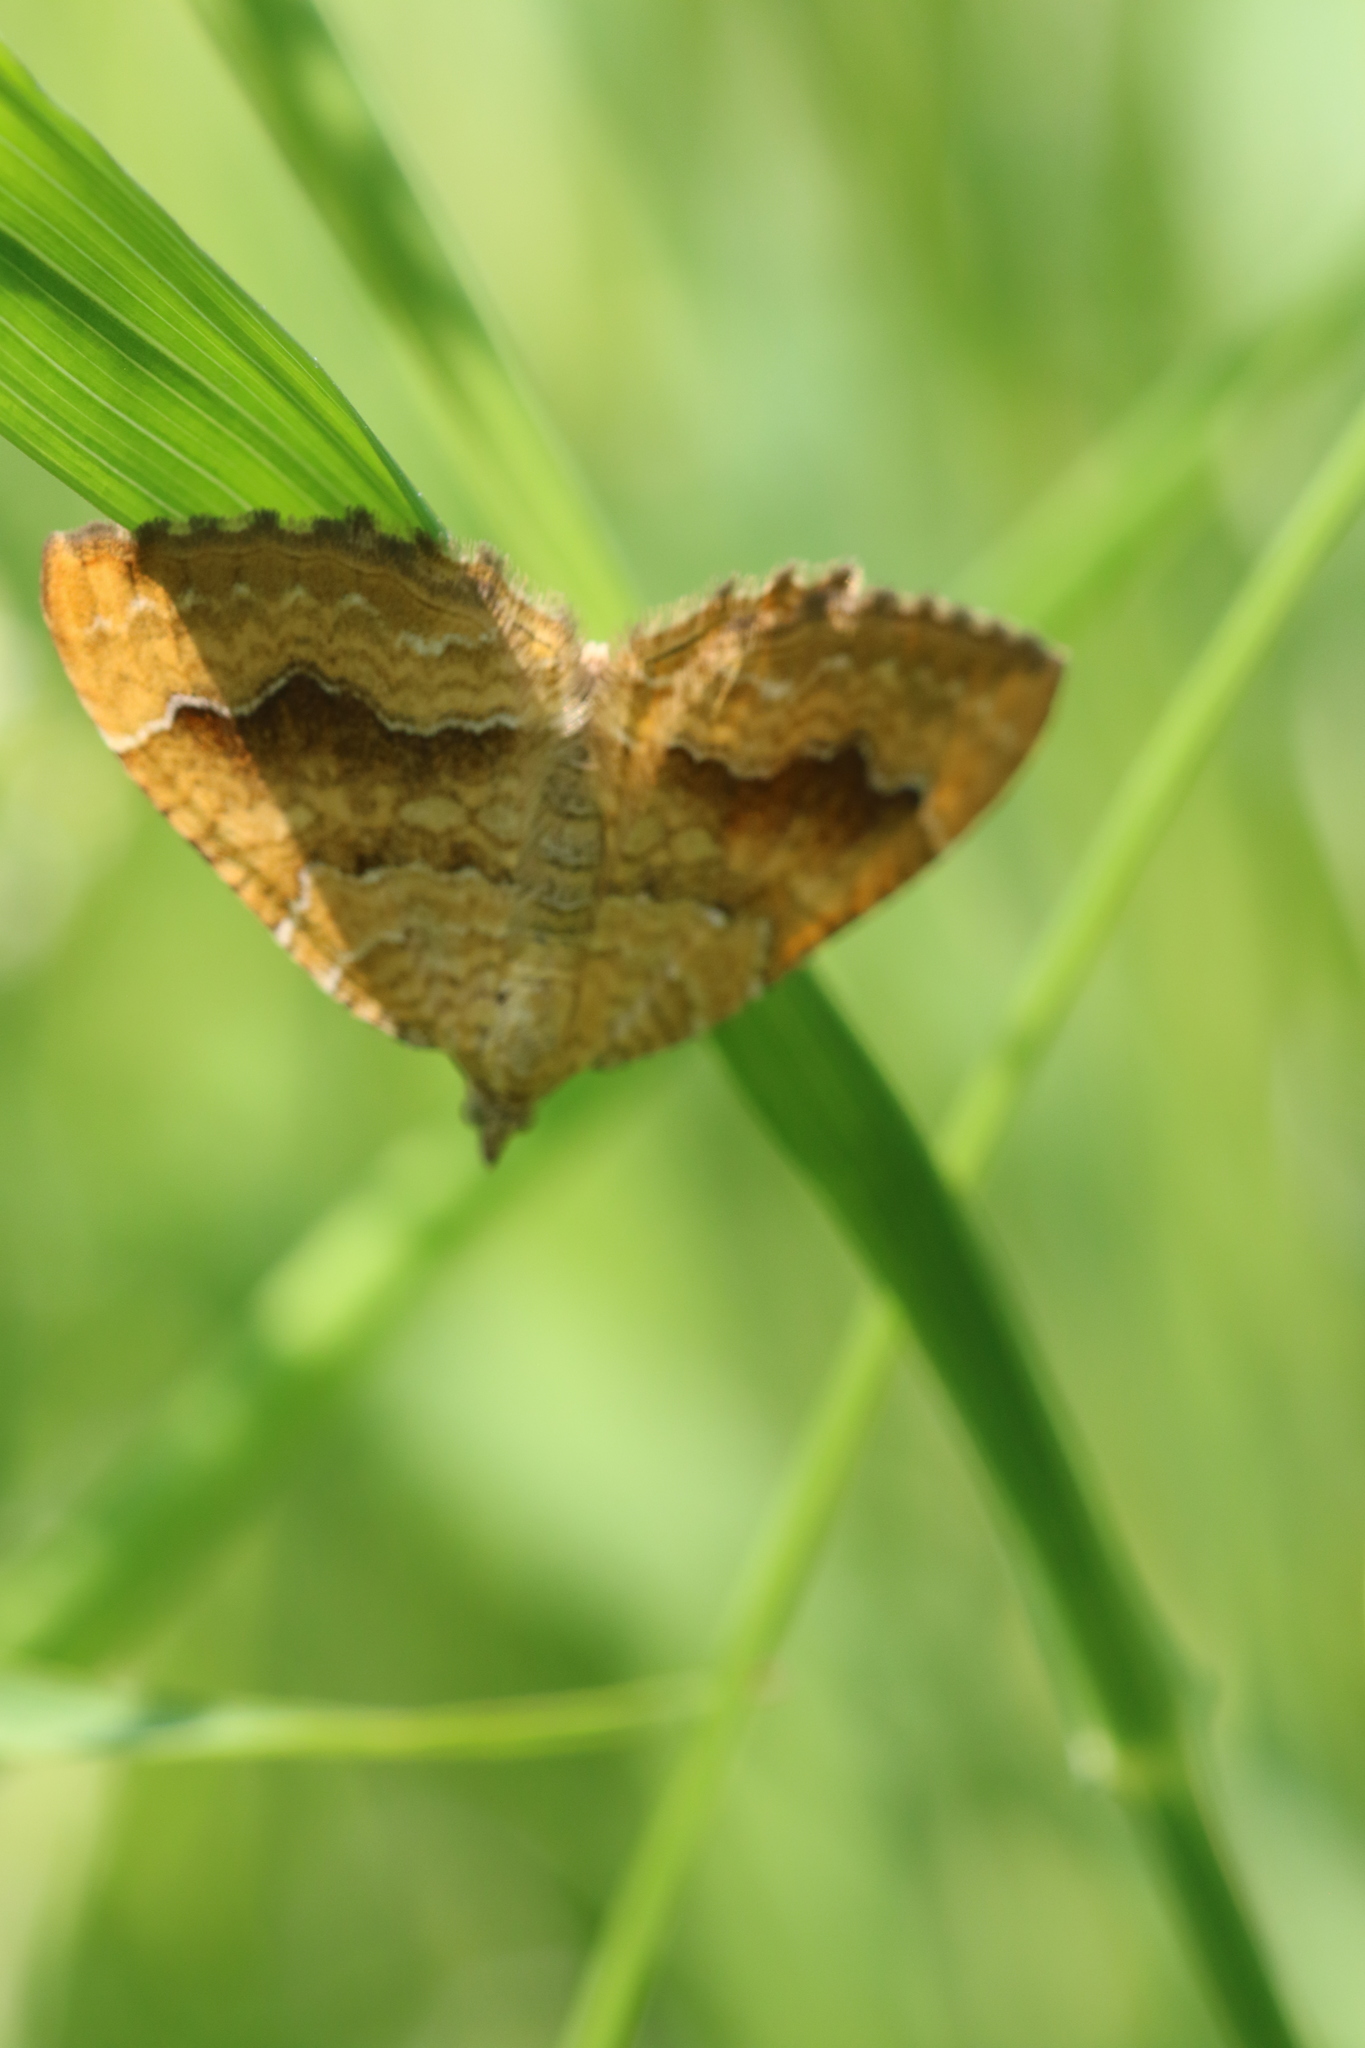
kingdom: Animalia
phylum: Arthropoda
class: Insecta
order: Lepidoptera
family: Geometridae
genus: Camptogramma
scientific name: Camptogramma bilineata
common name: Yellow shell
